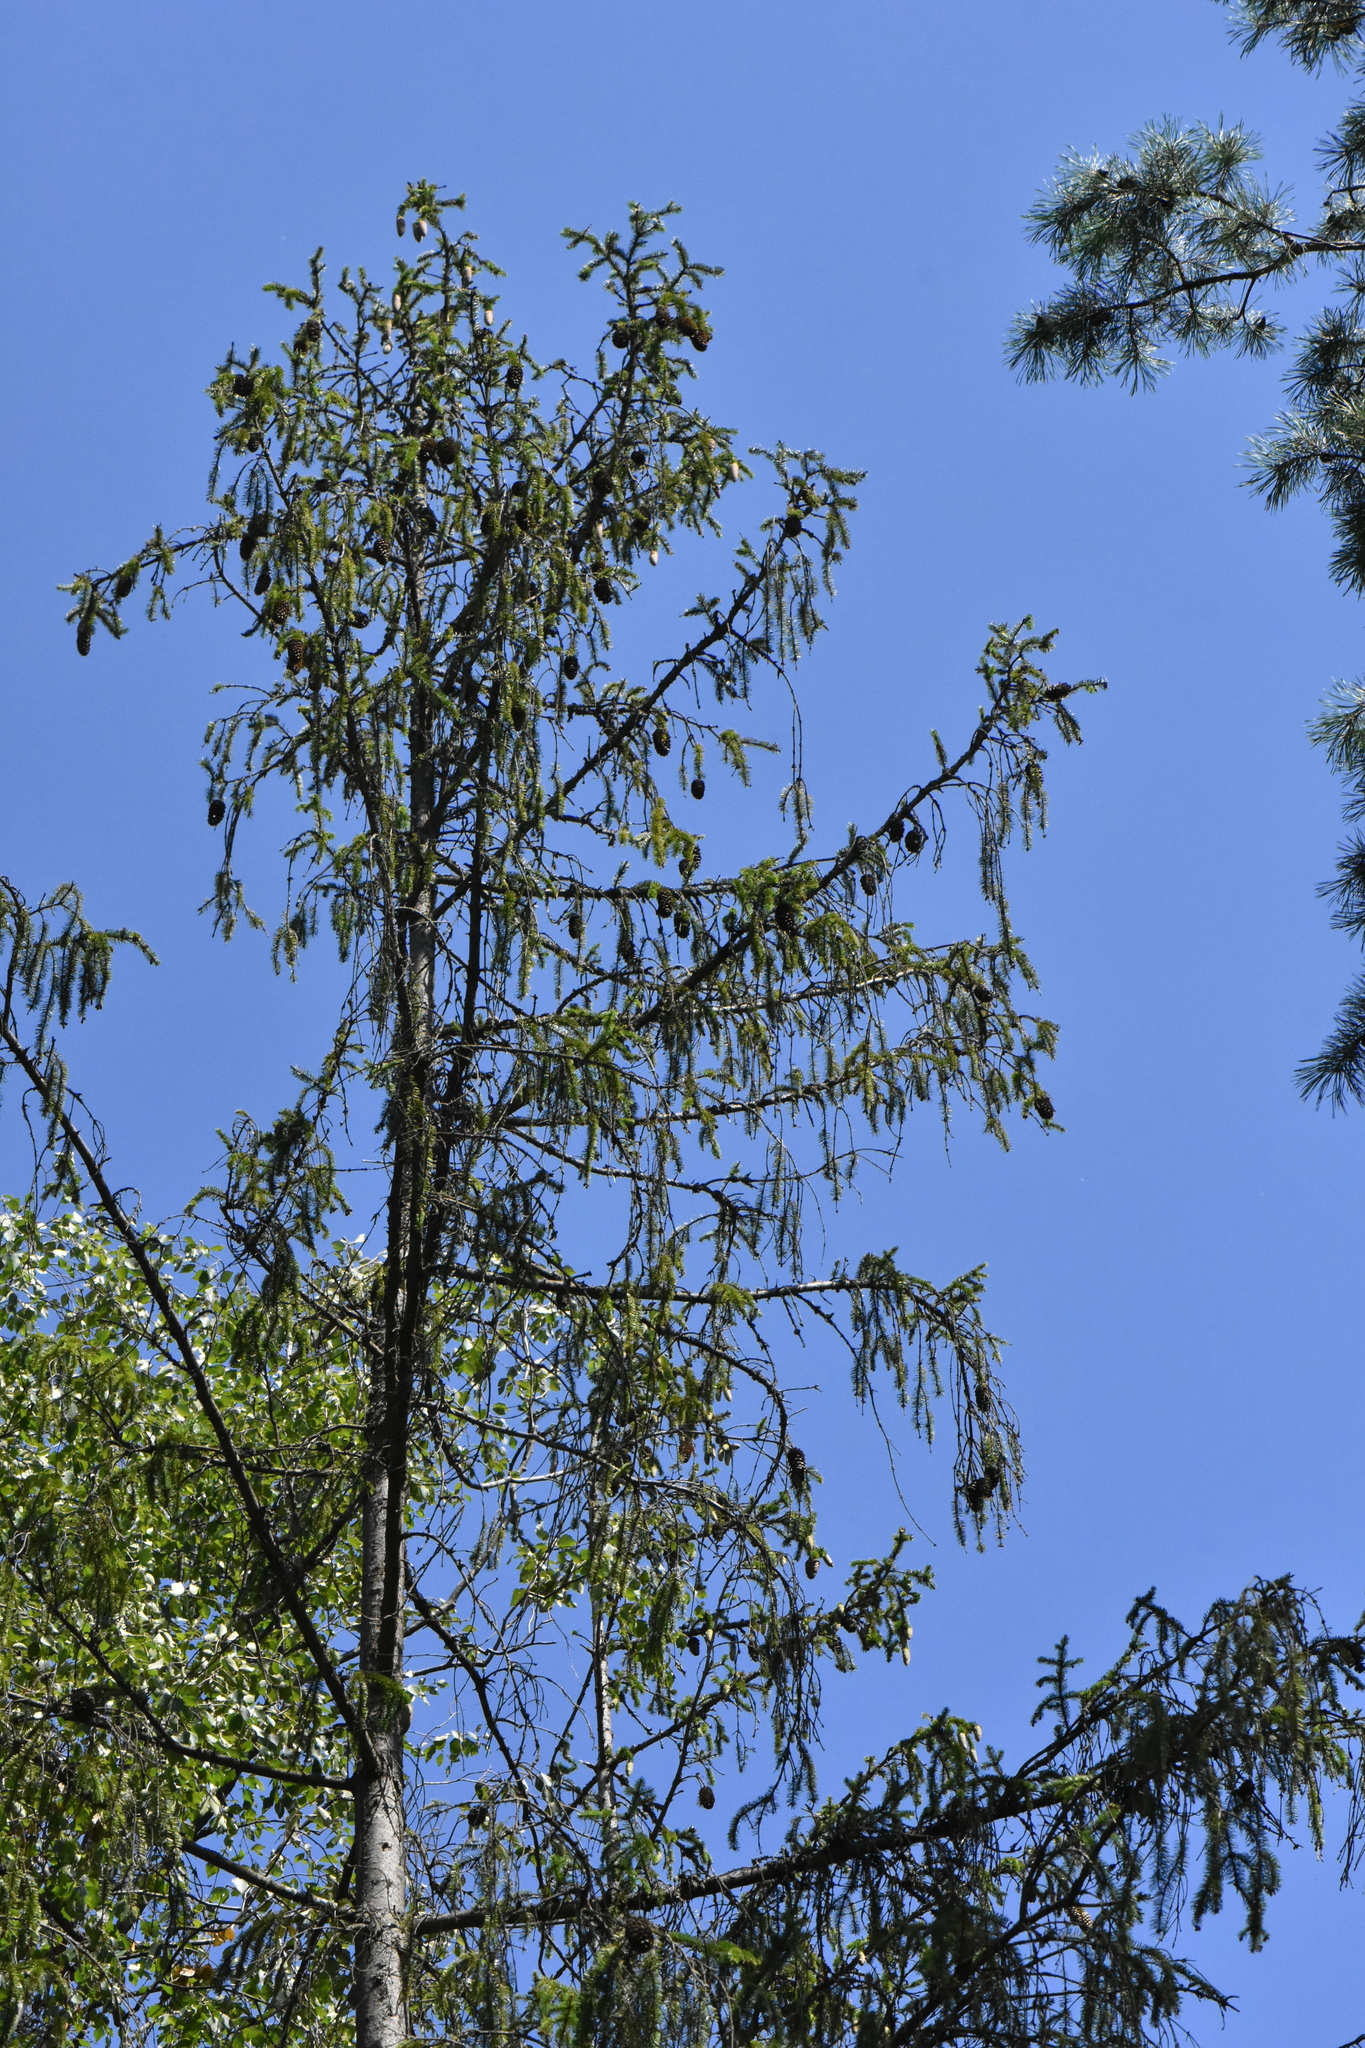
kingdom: Plantae
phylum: Tracheophyta
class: Pinopsida
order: Pinales
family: Pinaceae
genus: Picea
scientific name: Picea abies
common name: Norway spruce
